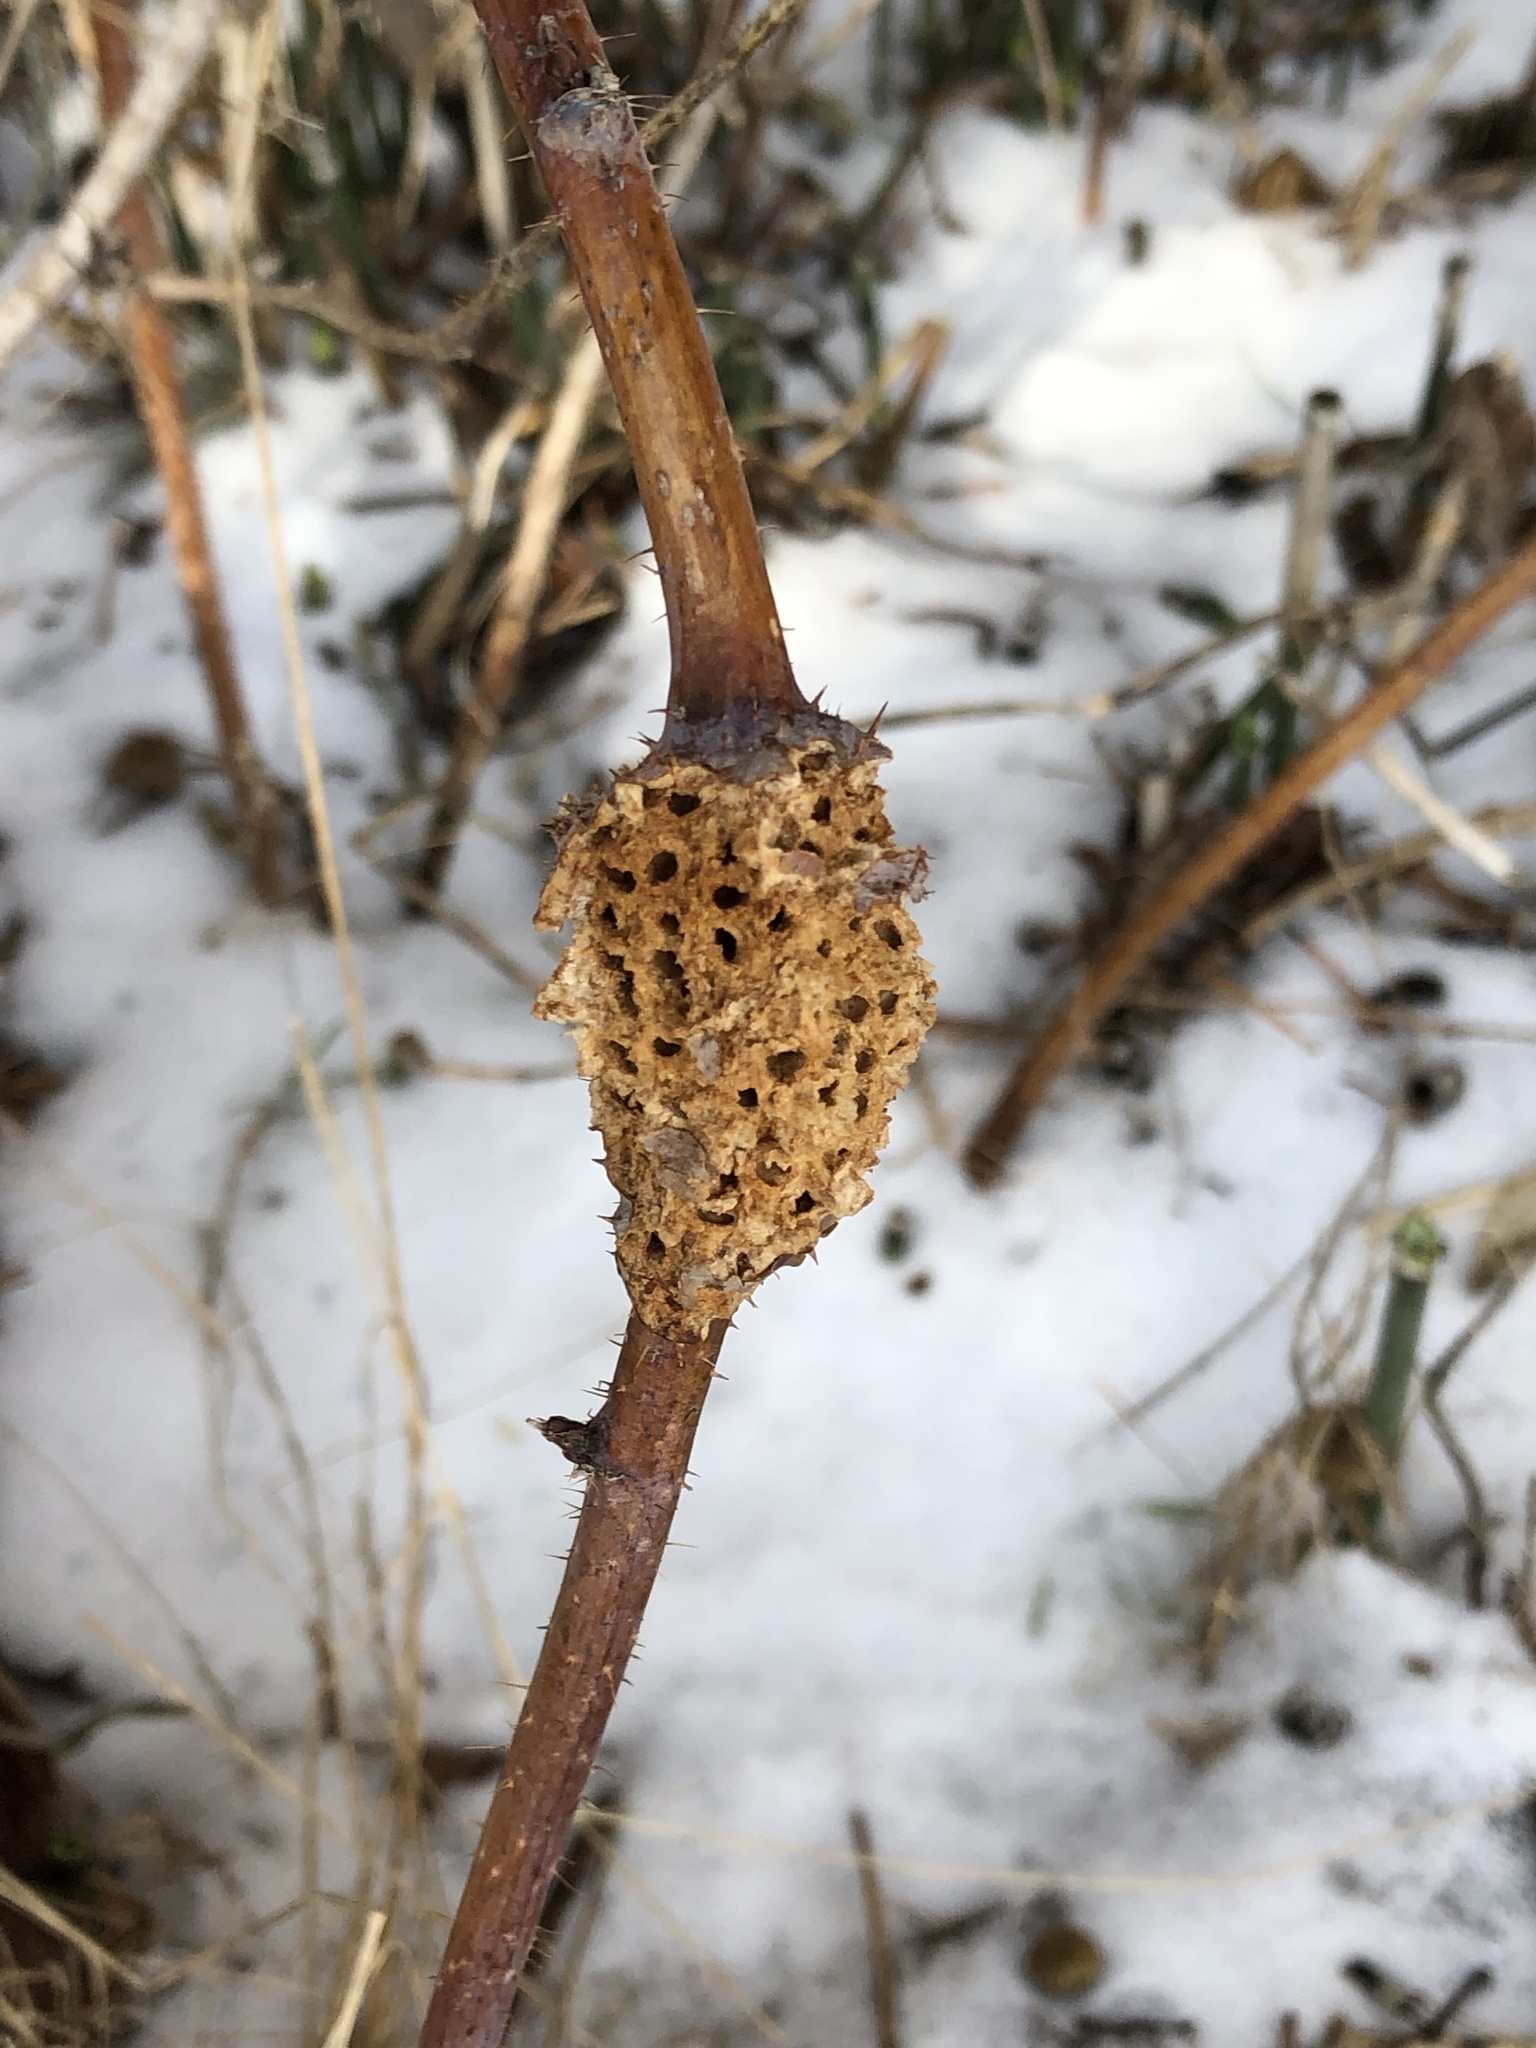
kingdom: Animalia
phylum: Arthropoda
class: Insecta
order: Hymenoptera
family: Cynipidae
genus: Diastrophus
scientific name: Diastrophus turgidus
